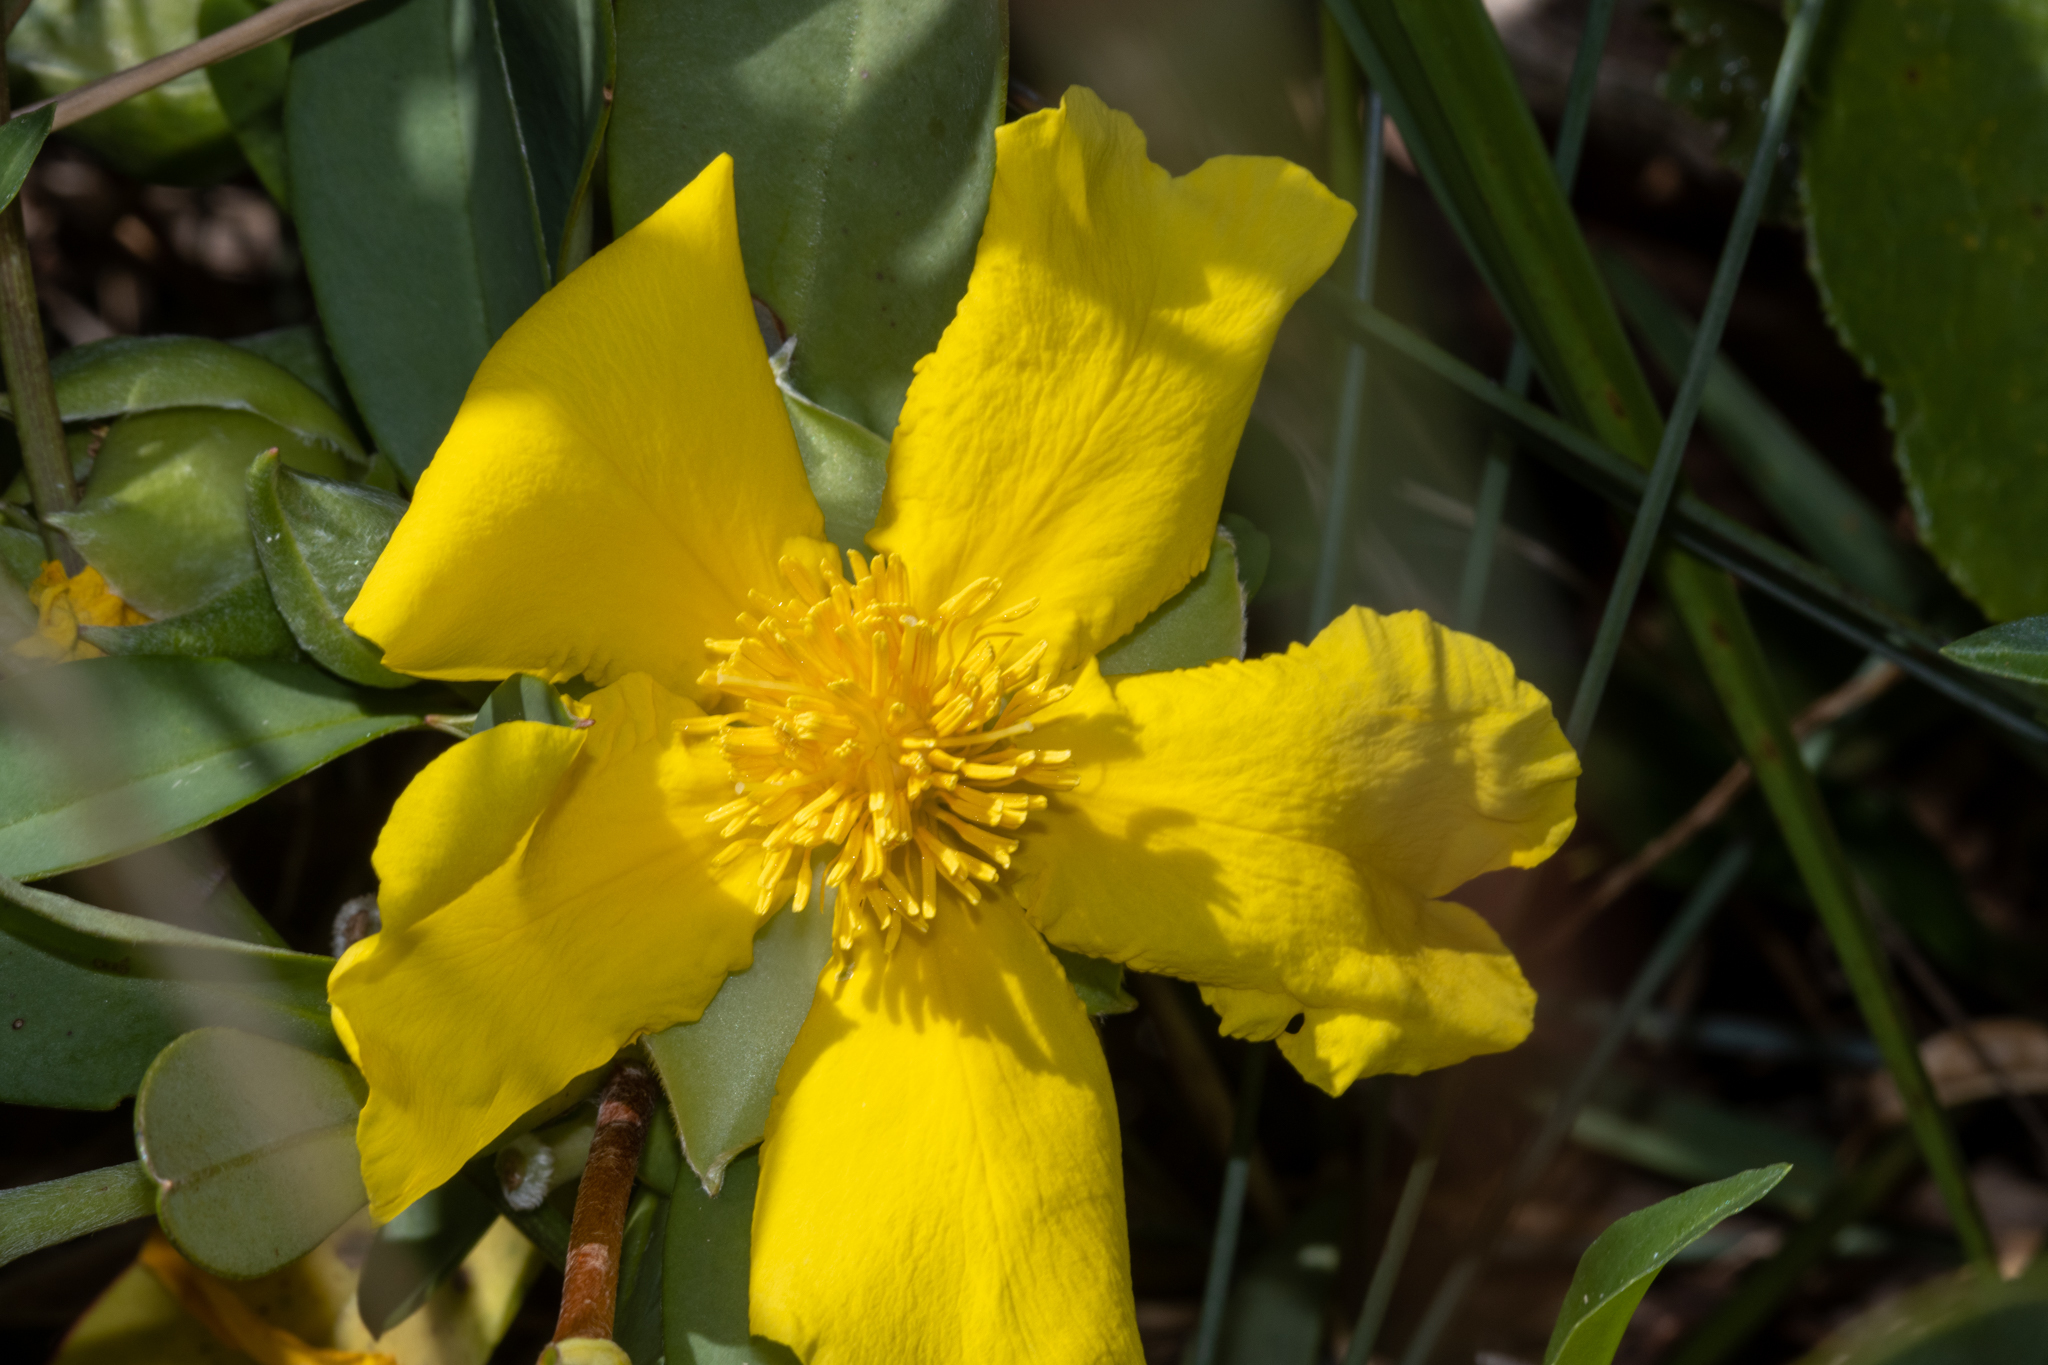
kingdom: Plantae
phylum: Tracheophyta
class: Magnoliopsida
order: Dilleniales
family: Dilleniaceae
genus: Hibbertia
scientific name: Hibbertia scandens
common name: Climbing guinea-flower
